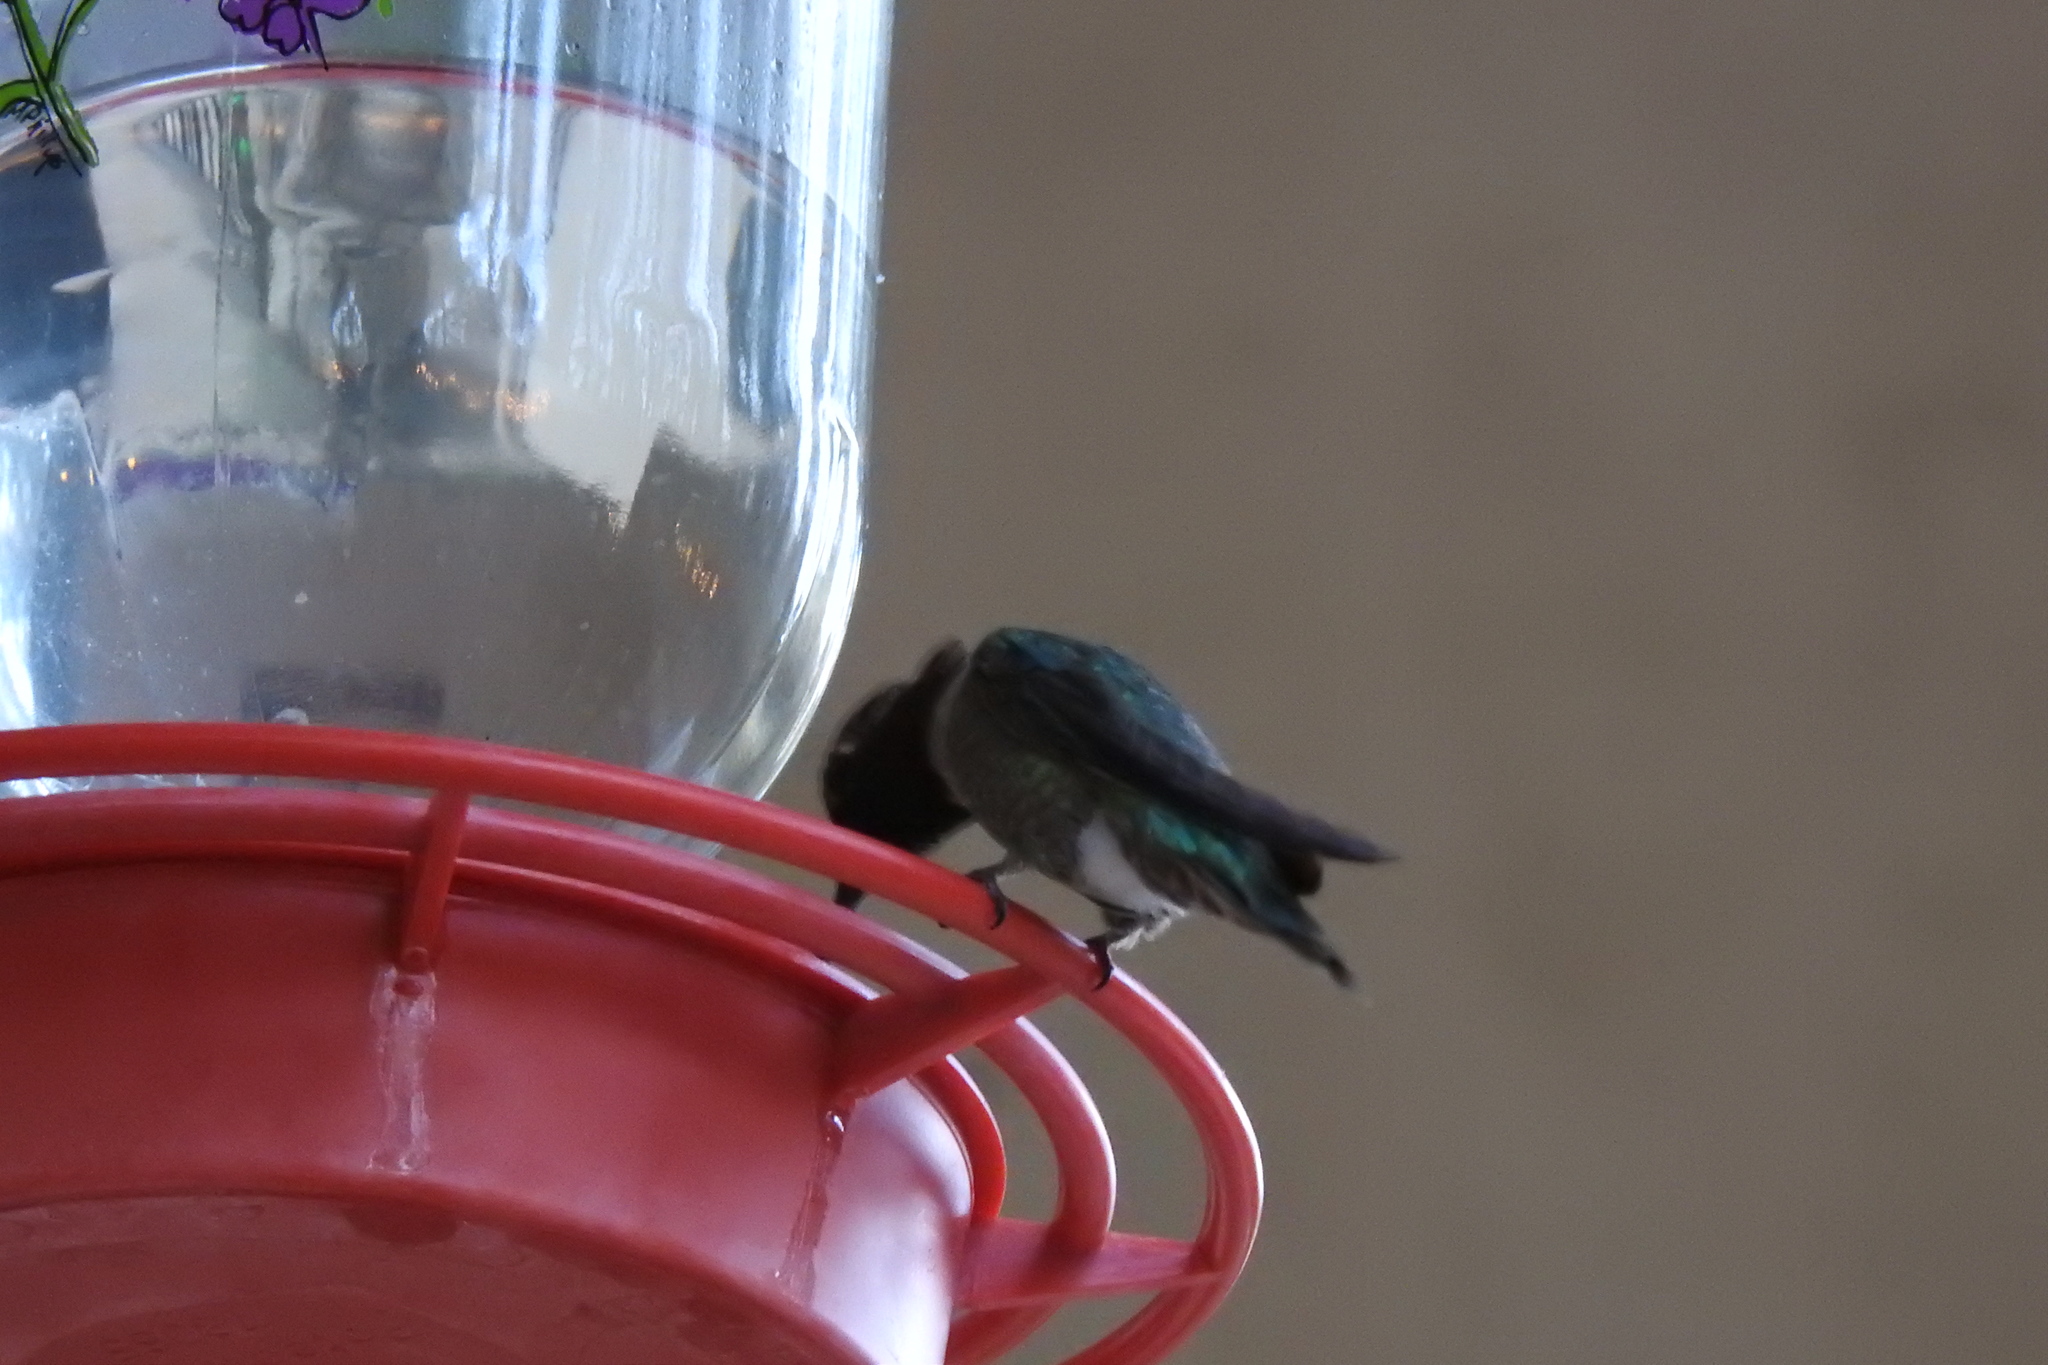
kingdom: Animalia
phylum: Chordata
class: Aves
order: Apodiformes
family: Trochilidae
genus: Calypte
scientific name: Calypte anna
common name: Anna's hummingbird
